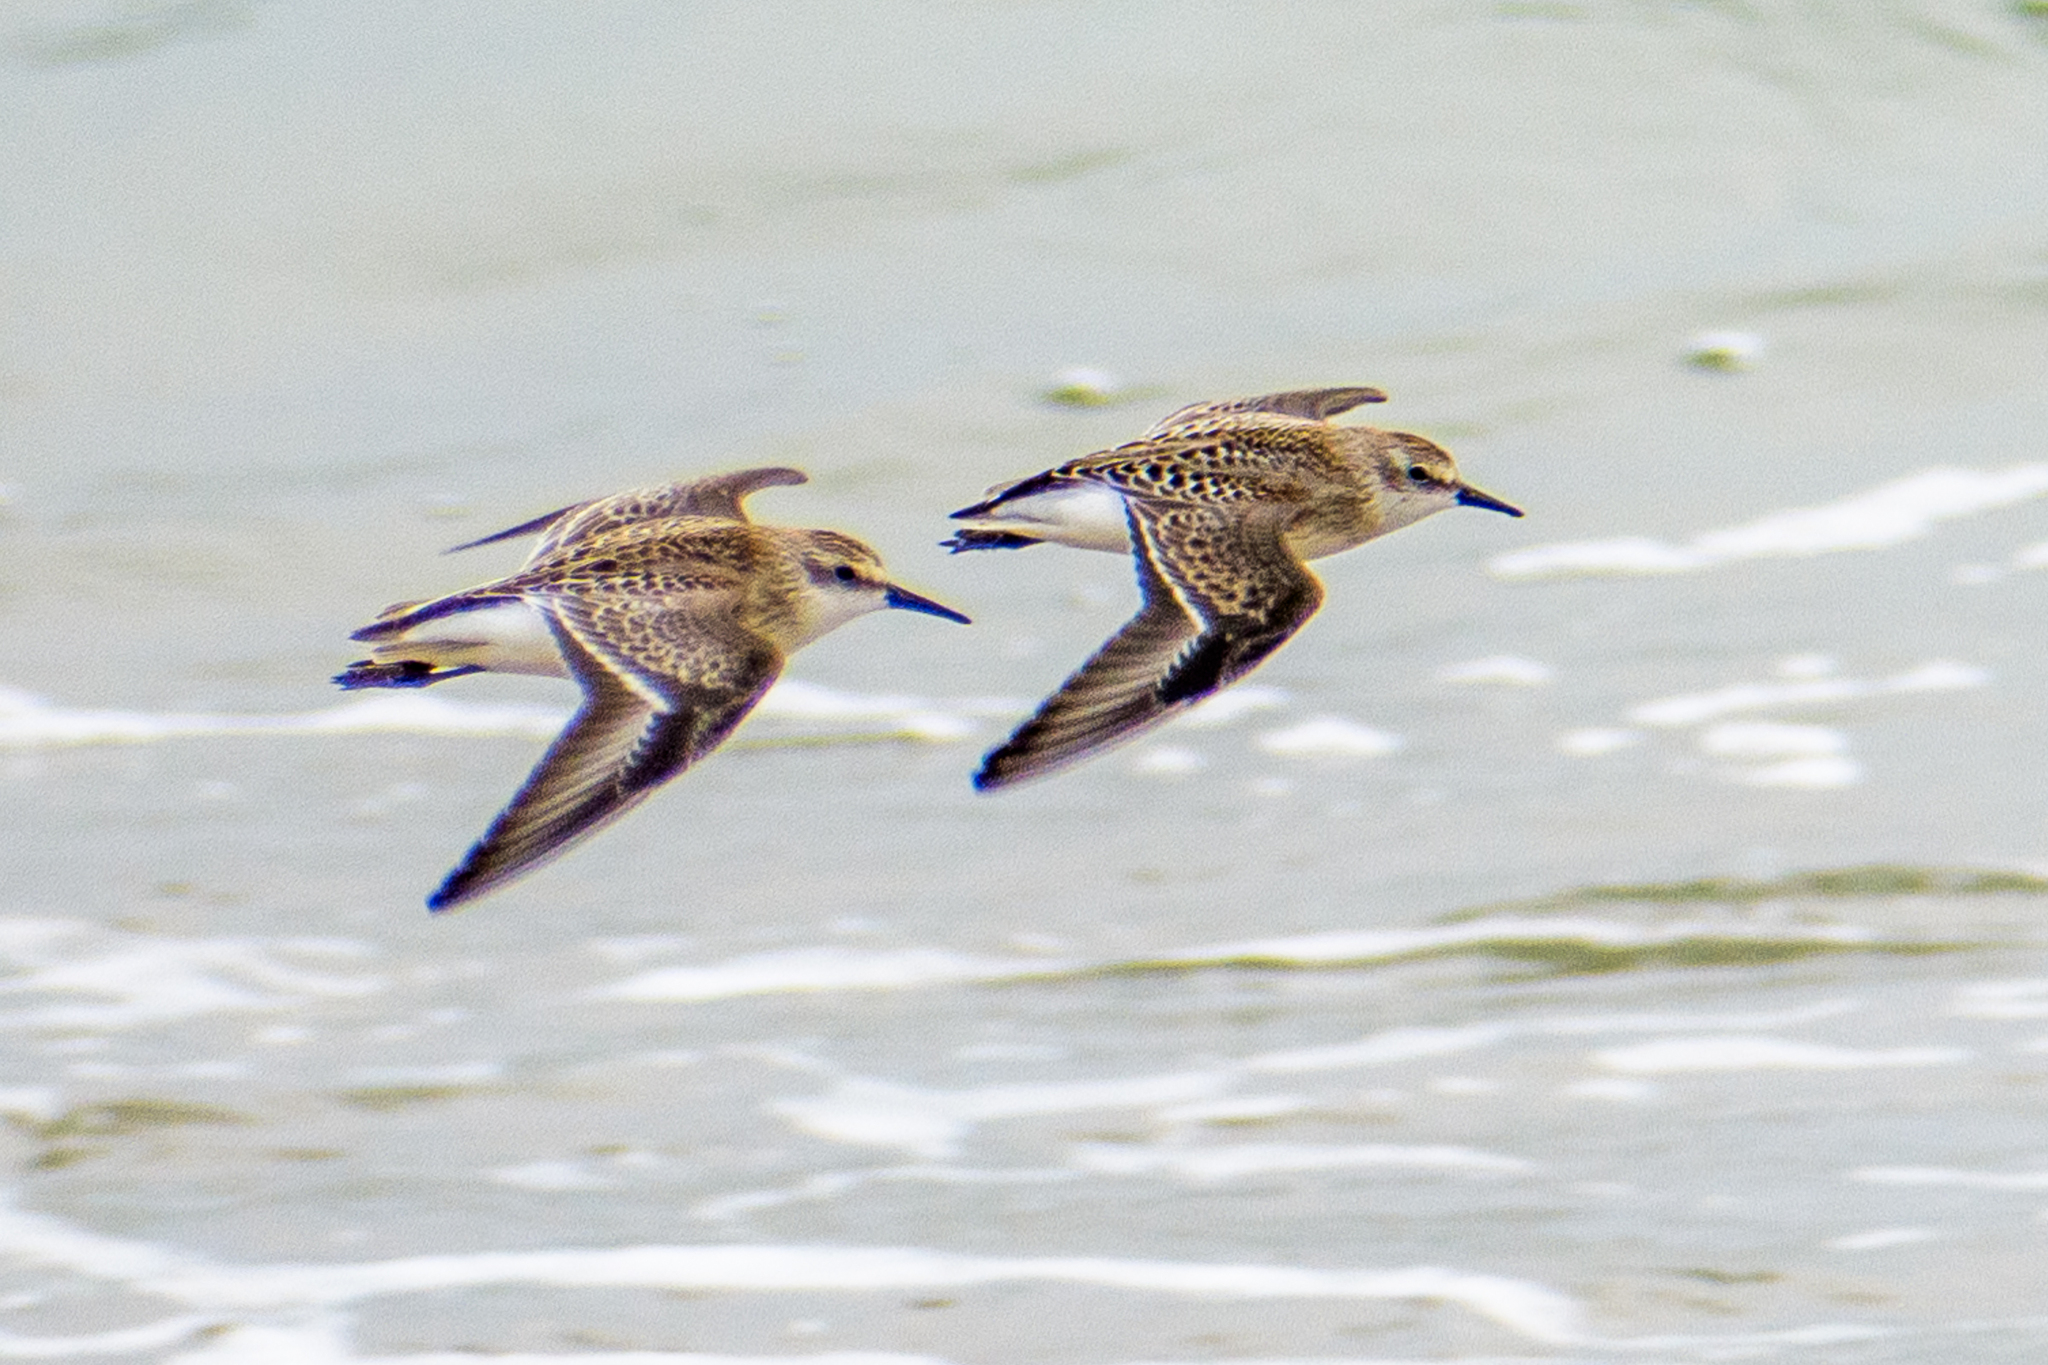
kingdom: Animalia
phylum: Chordata
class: Aves
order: Charadriiformes
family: Scolopacidae
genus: Calidris
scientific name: Calidris pusilla
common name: Semipalmated sandpiper
